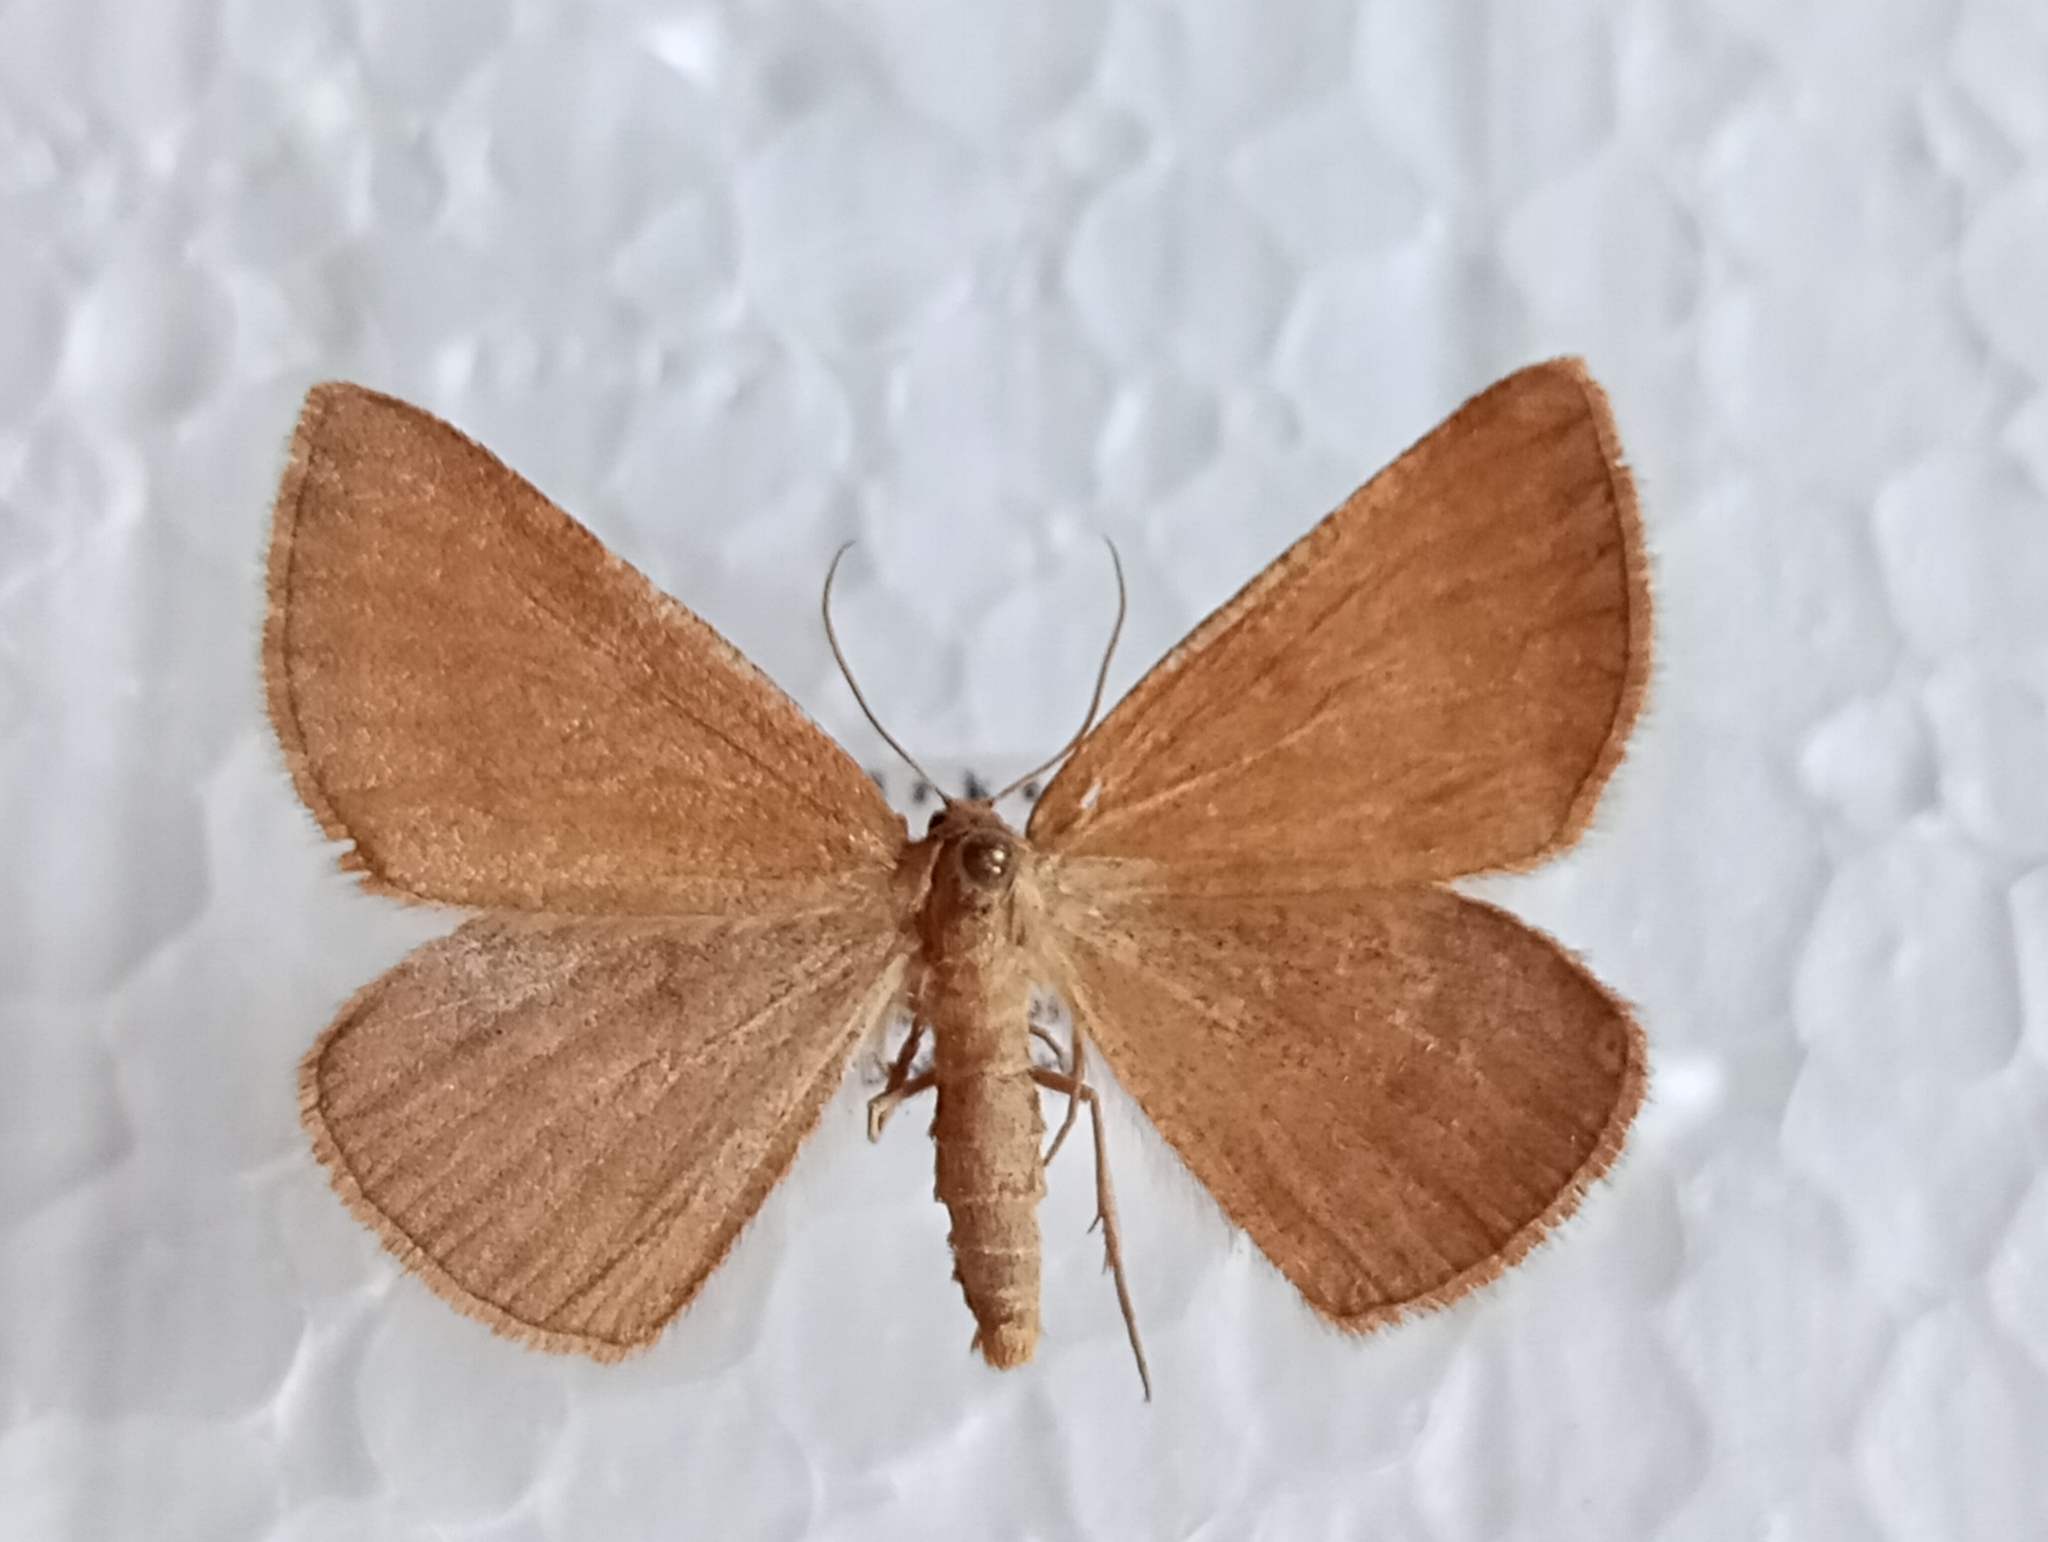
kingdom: Animalia
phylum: Arthropoda
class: Insecta
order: Lepidoptera
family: Geometridae
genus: Aplasta
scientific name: Aplasta ononaria
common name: Rest harrow
